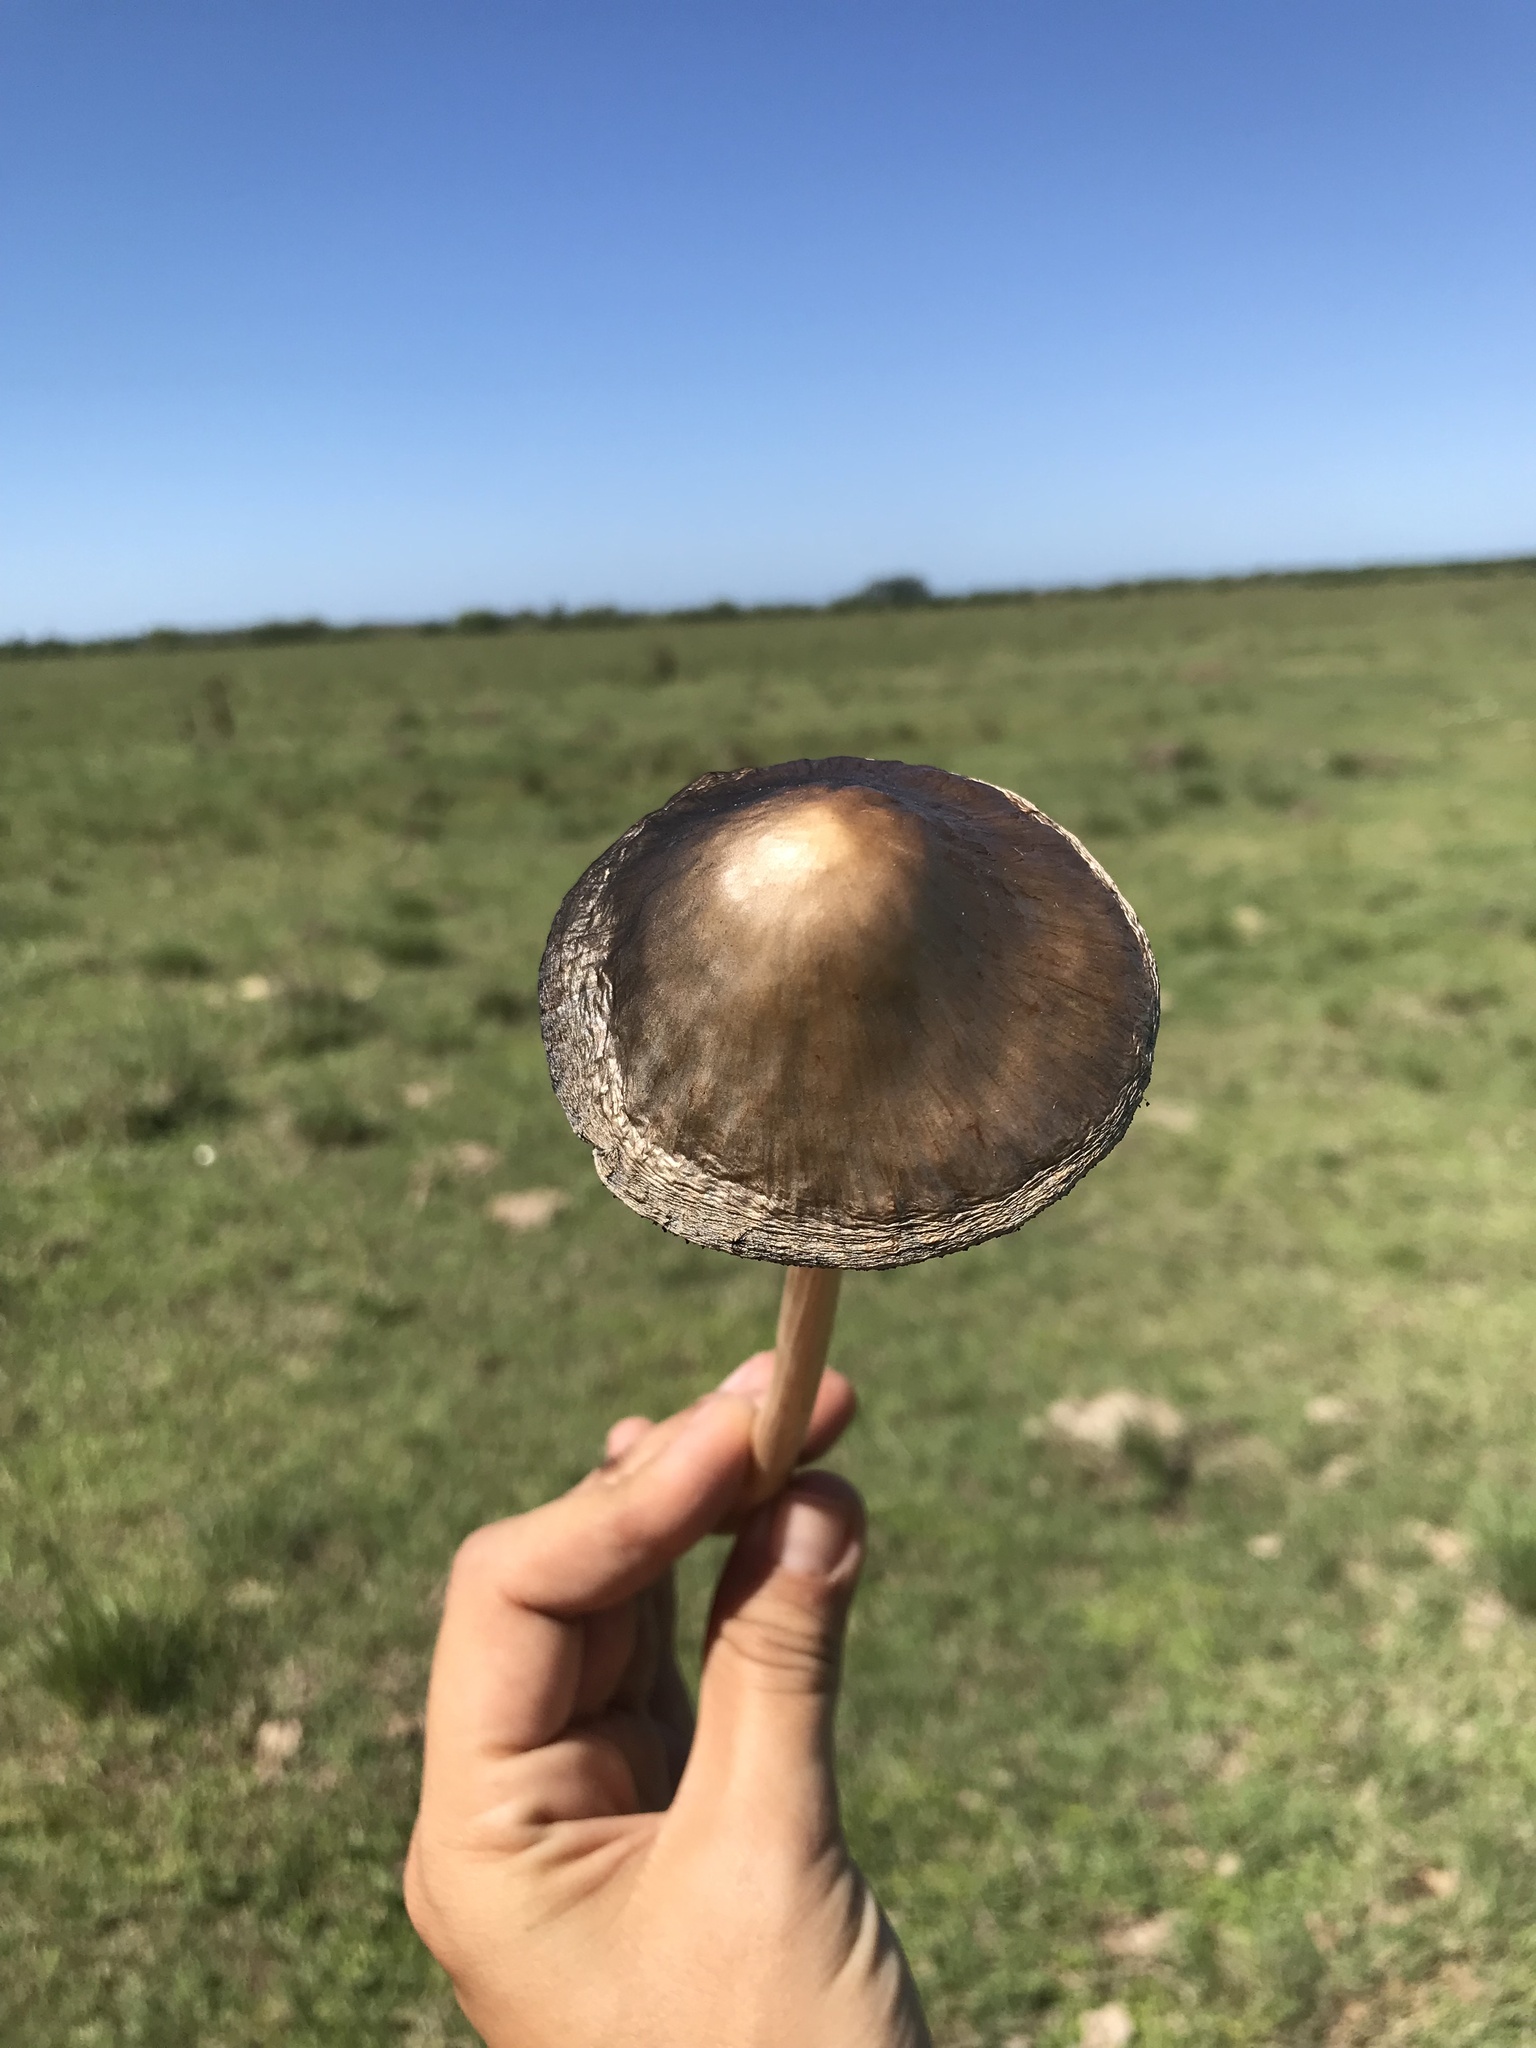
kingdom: Fungi
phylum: Basidiomycota
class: Agaricomycetes
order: Agaricales
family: Bolbitiaceae
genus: Panaeolus
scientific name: Panaeolus papilionaceus
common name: Petticoat mottlegill
